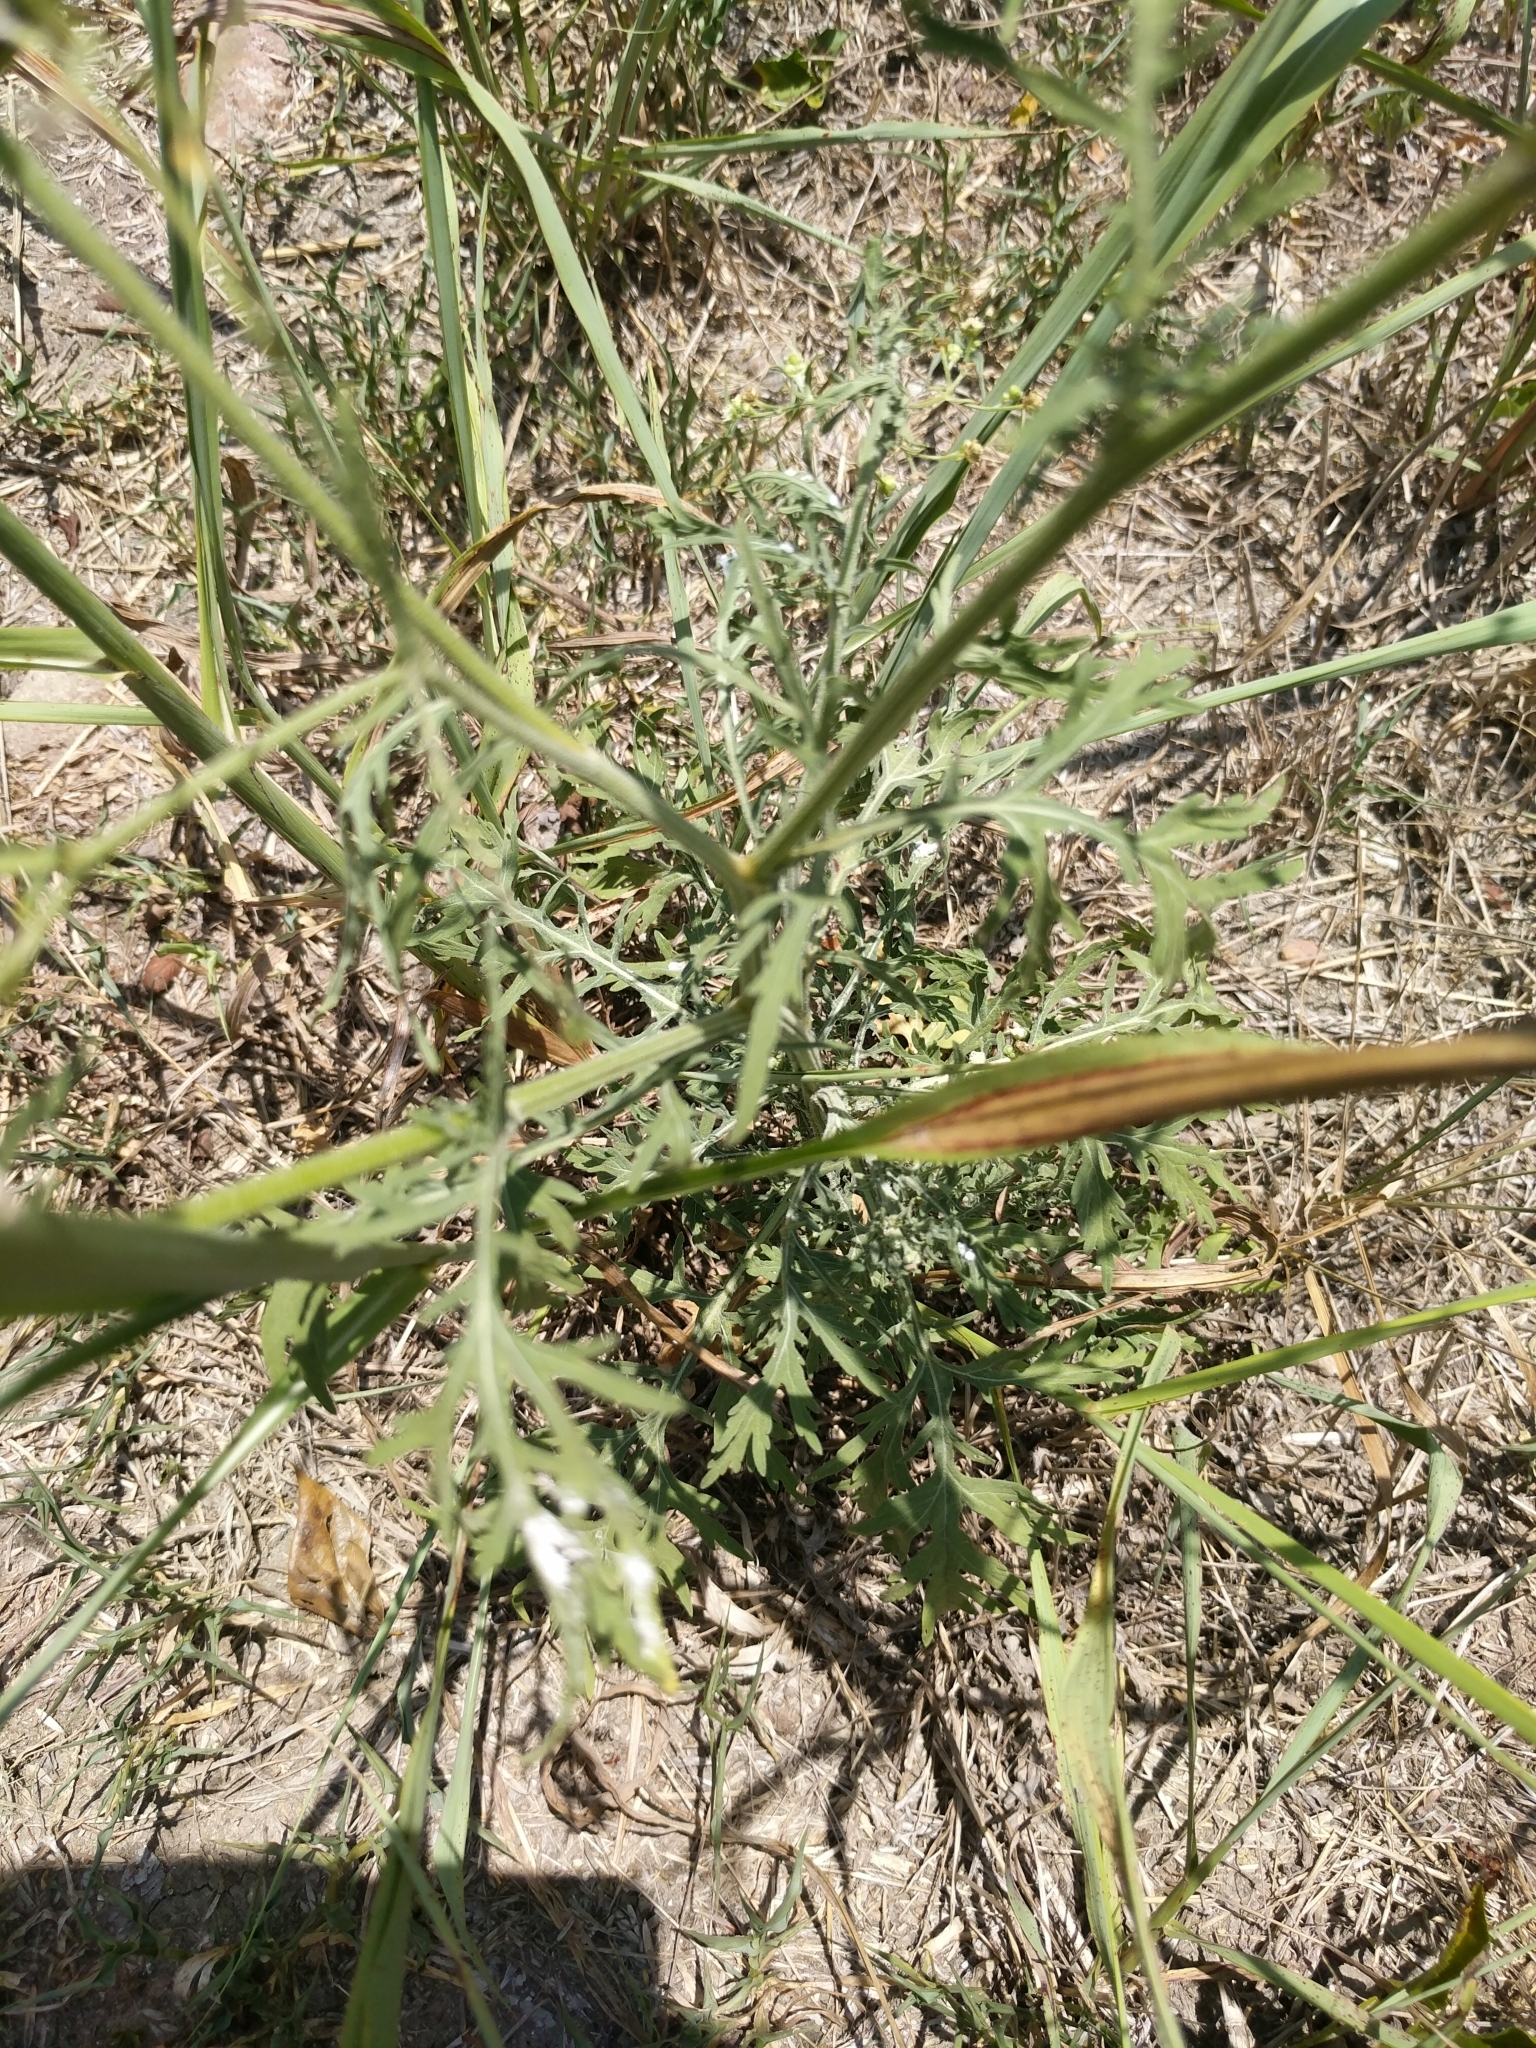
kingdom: Plantae
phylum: Tracheophyta
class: Magnoliopsida
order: Asterales
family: Asteraceae
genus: Parthenium
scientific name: Parthenium hysterophorus
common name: Santa maria feverfew
